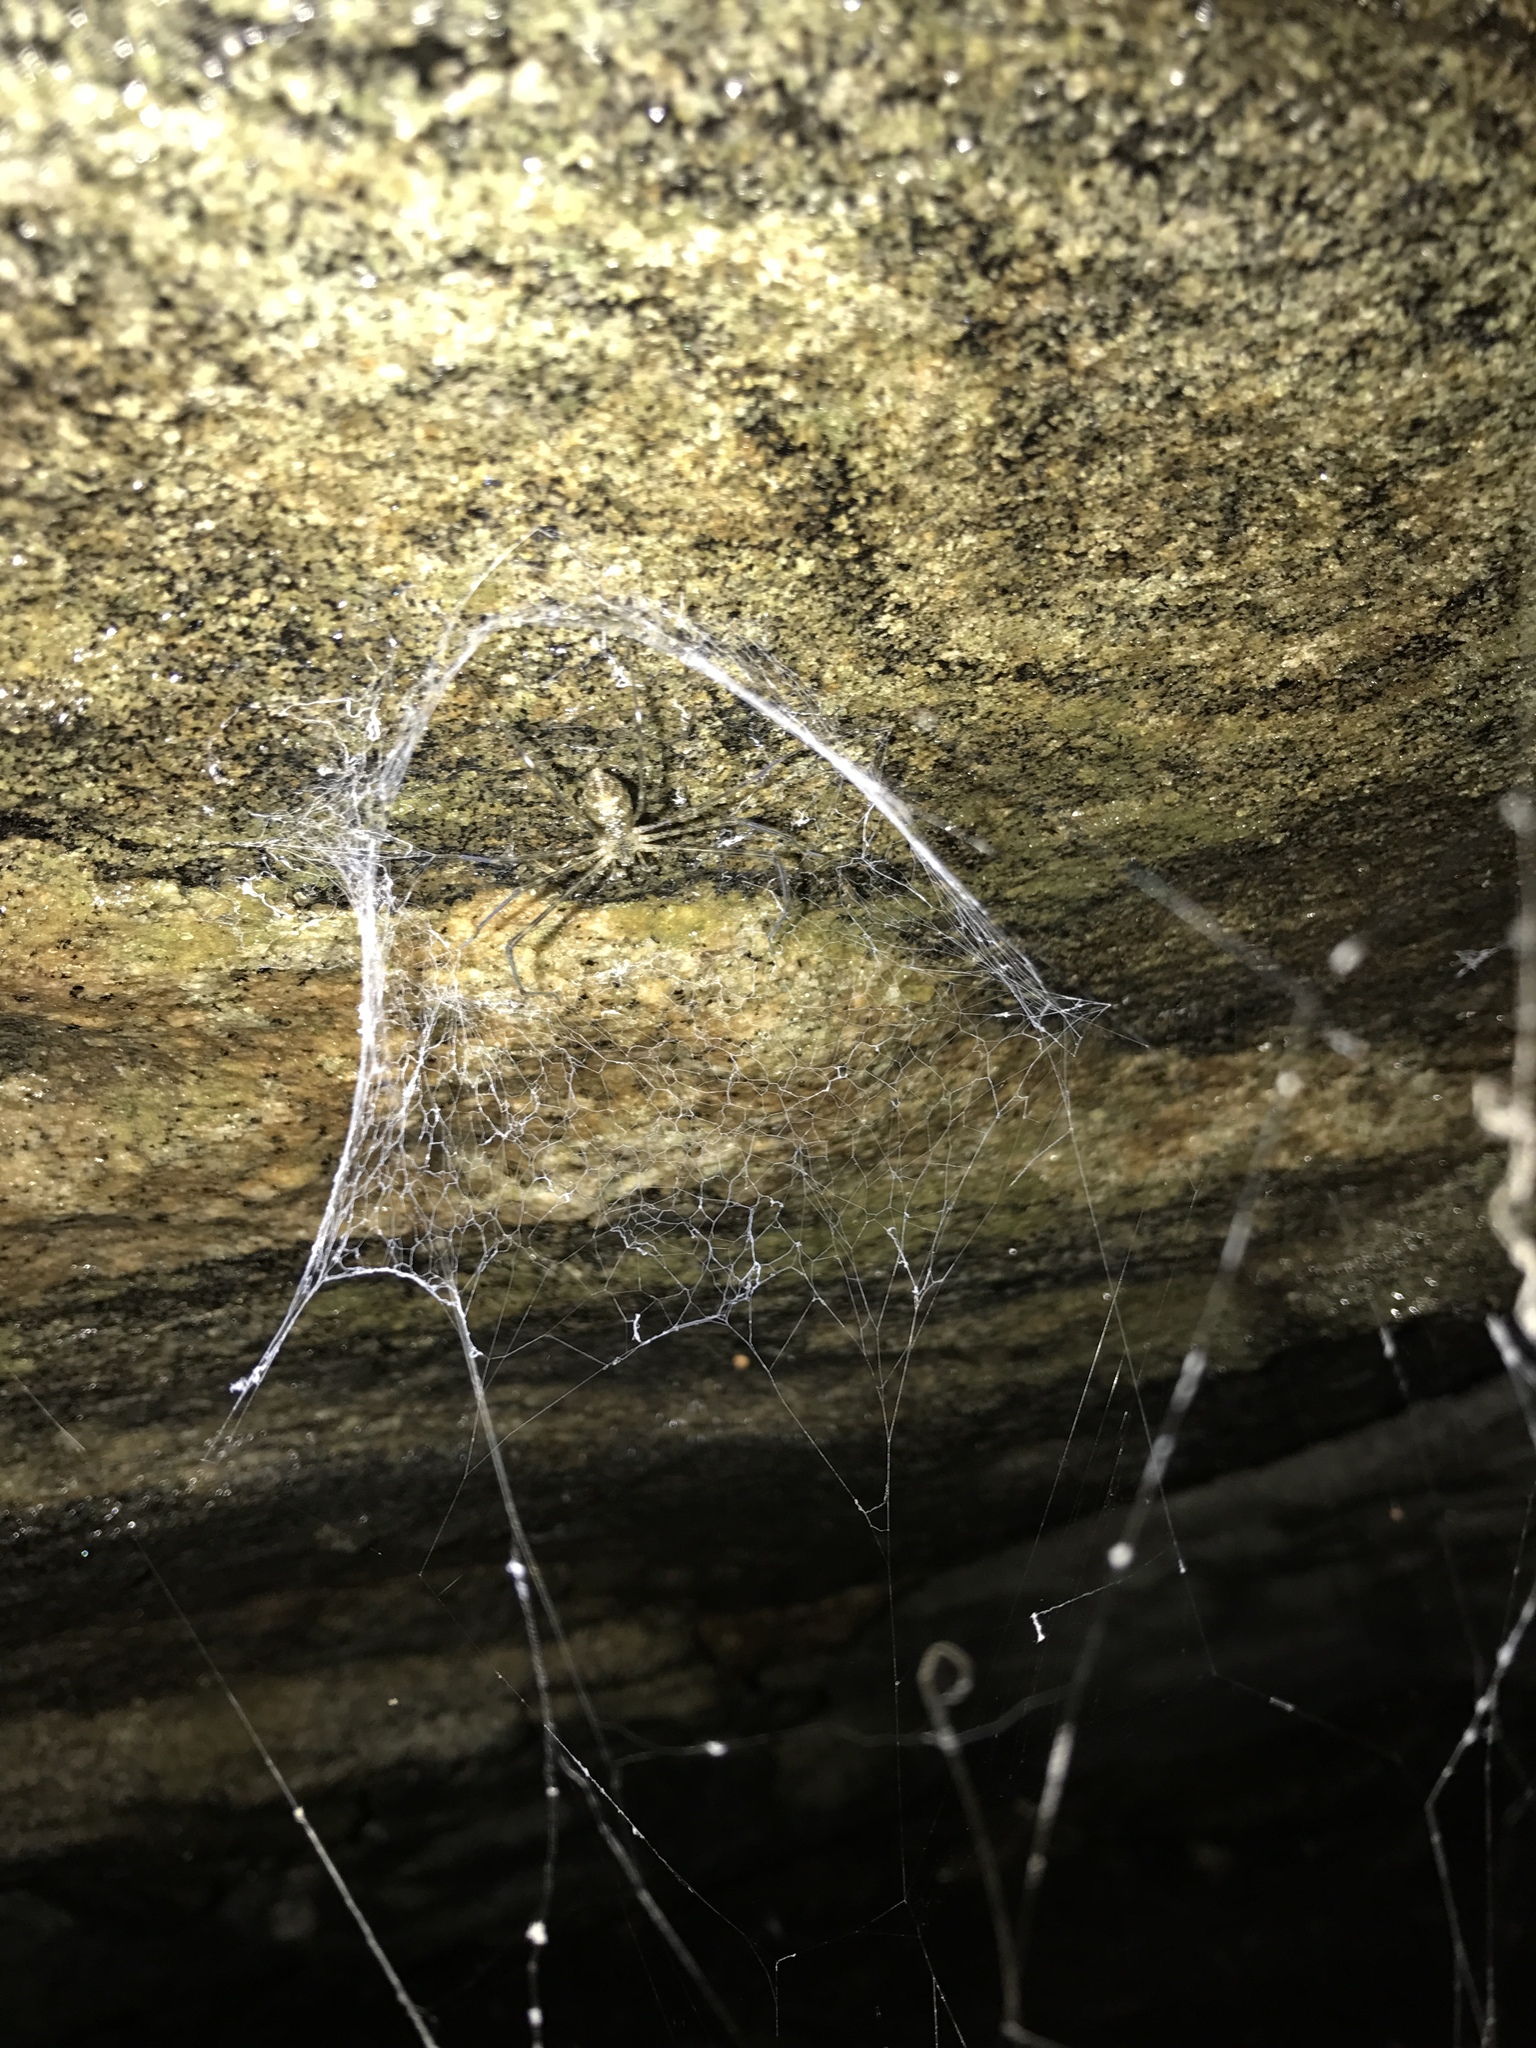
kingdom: Animalia
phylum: Arthropoda
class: Arachnida
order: Araneae
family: Hypochilidae
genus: Hypochilus
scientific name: Hypochilus pococki
